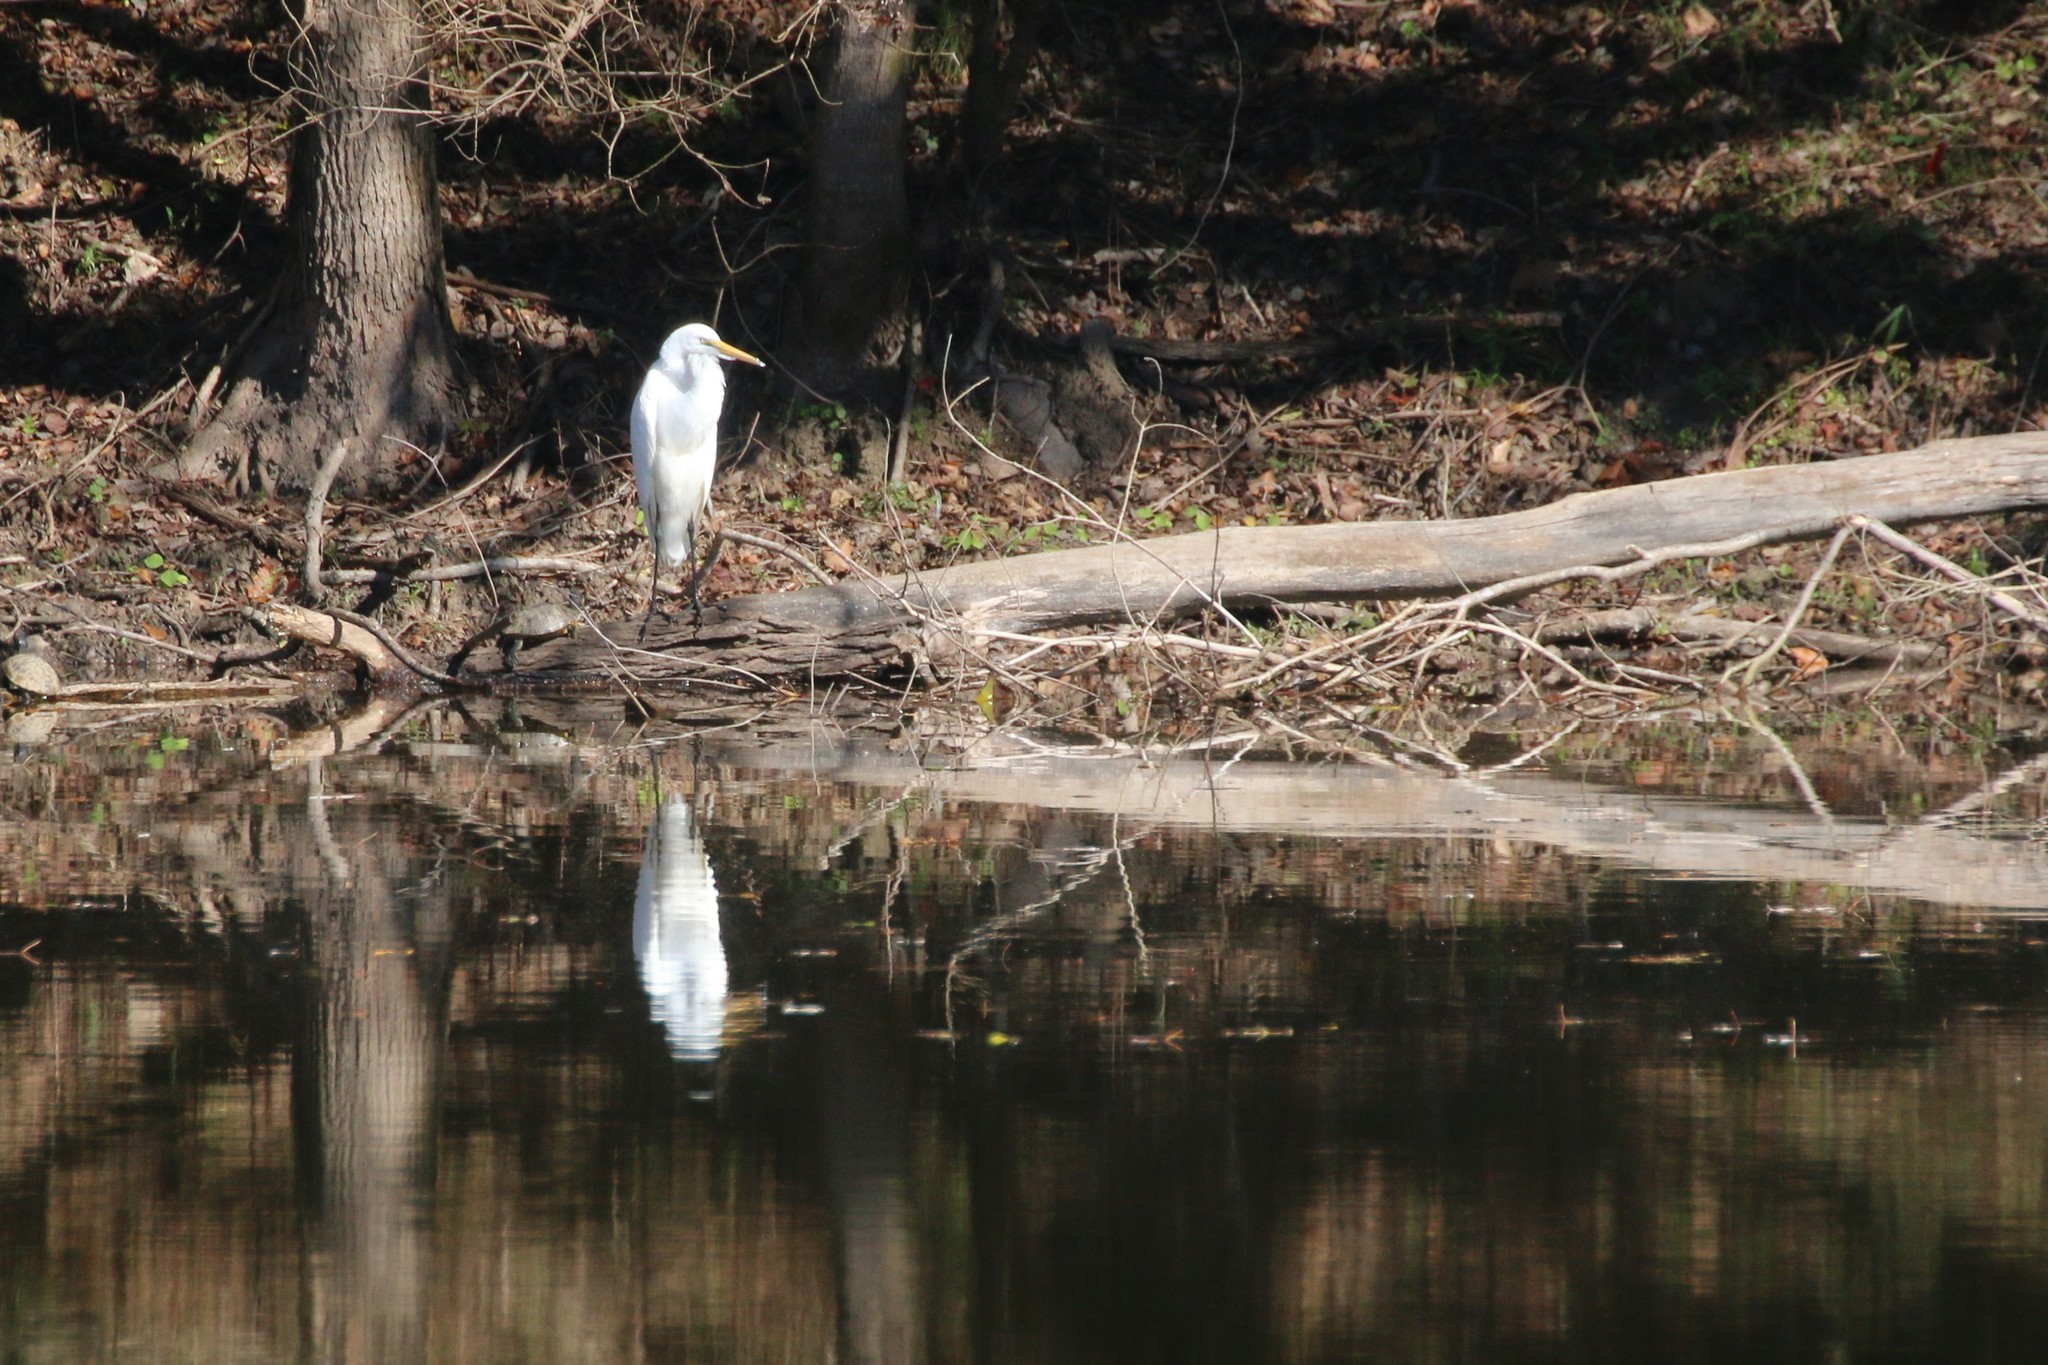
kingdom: Animalia
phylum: Chordata
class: Aves
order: Pelecaniformes
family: Ardeidae
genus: Ardea
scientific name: Ardea alba
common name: Great egret
